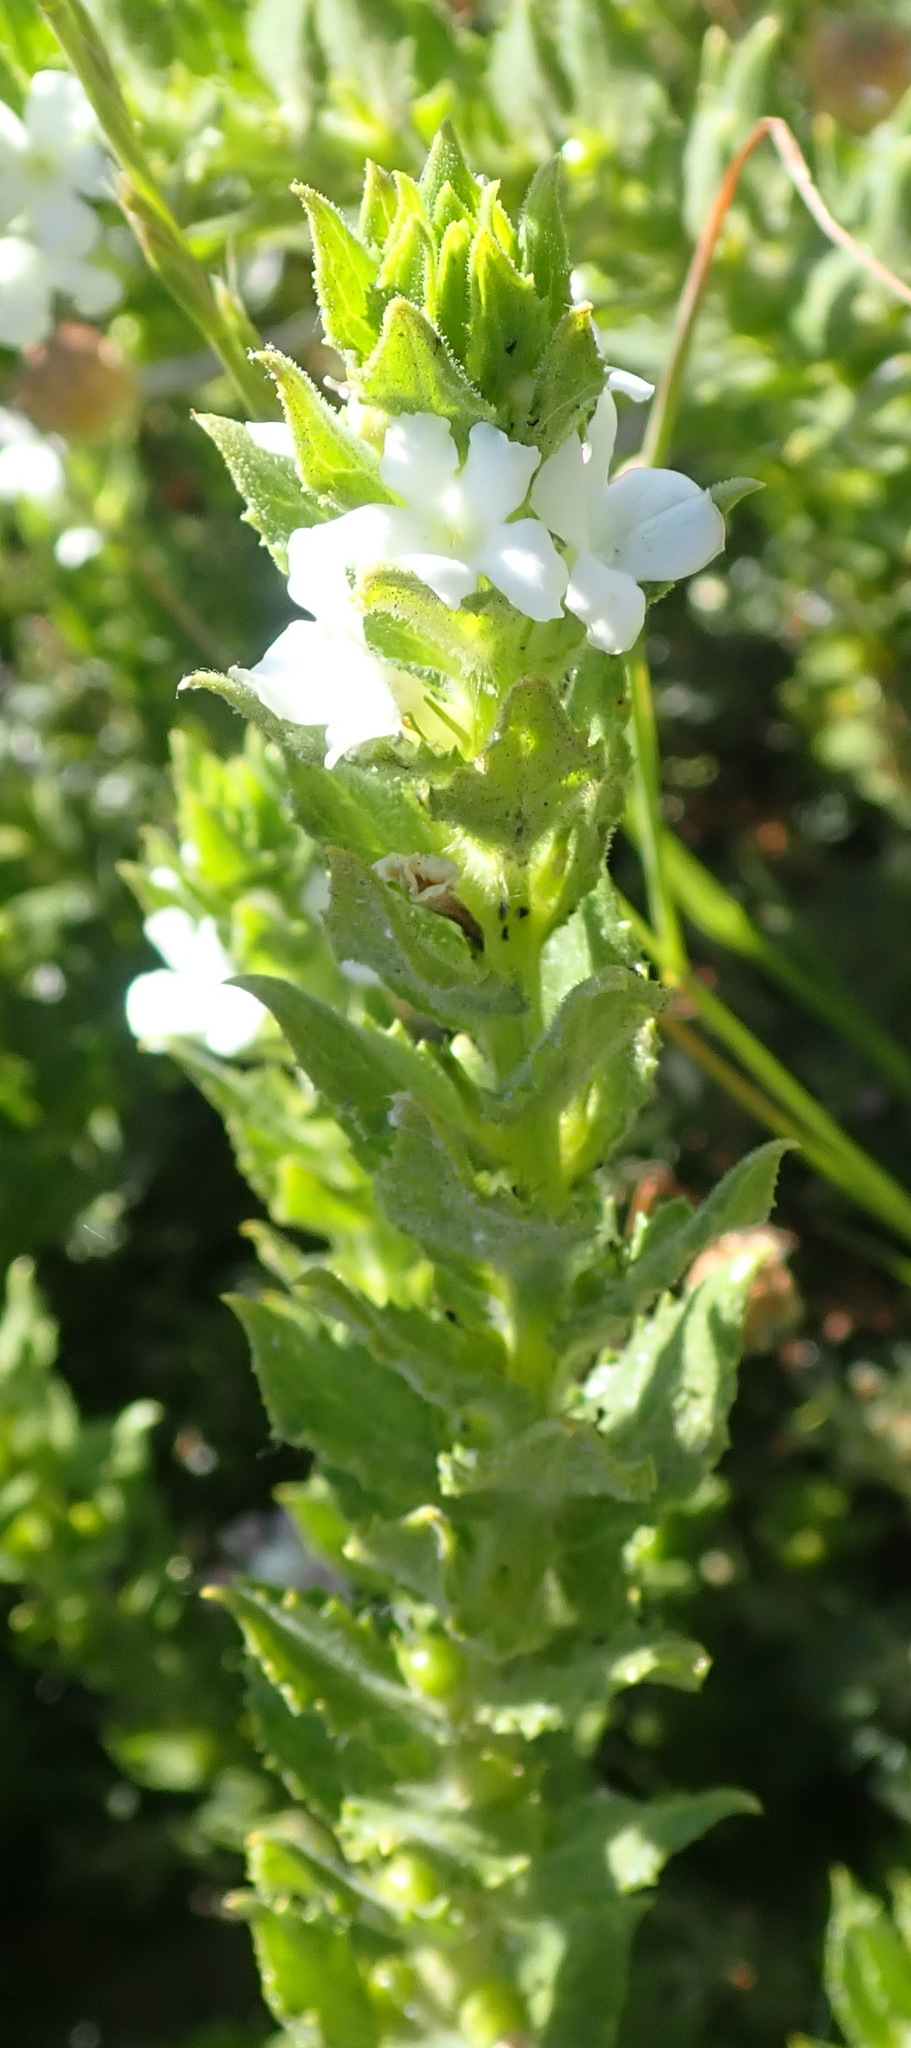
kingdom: Plantae
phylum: Tracheophyta
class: Magnoliopsida
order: Lamiales
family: Scrophulariaceae
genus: Oftia
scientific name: Oftia africana
